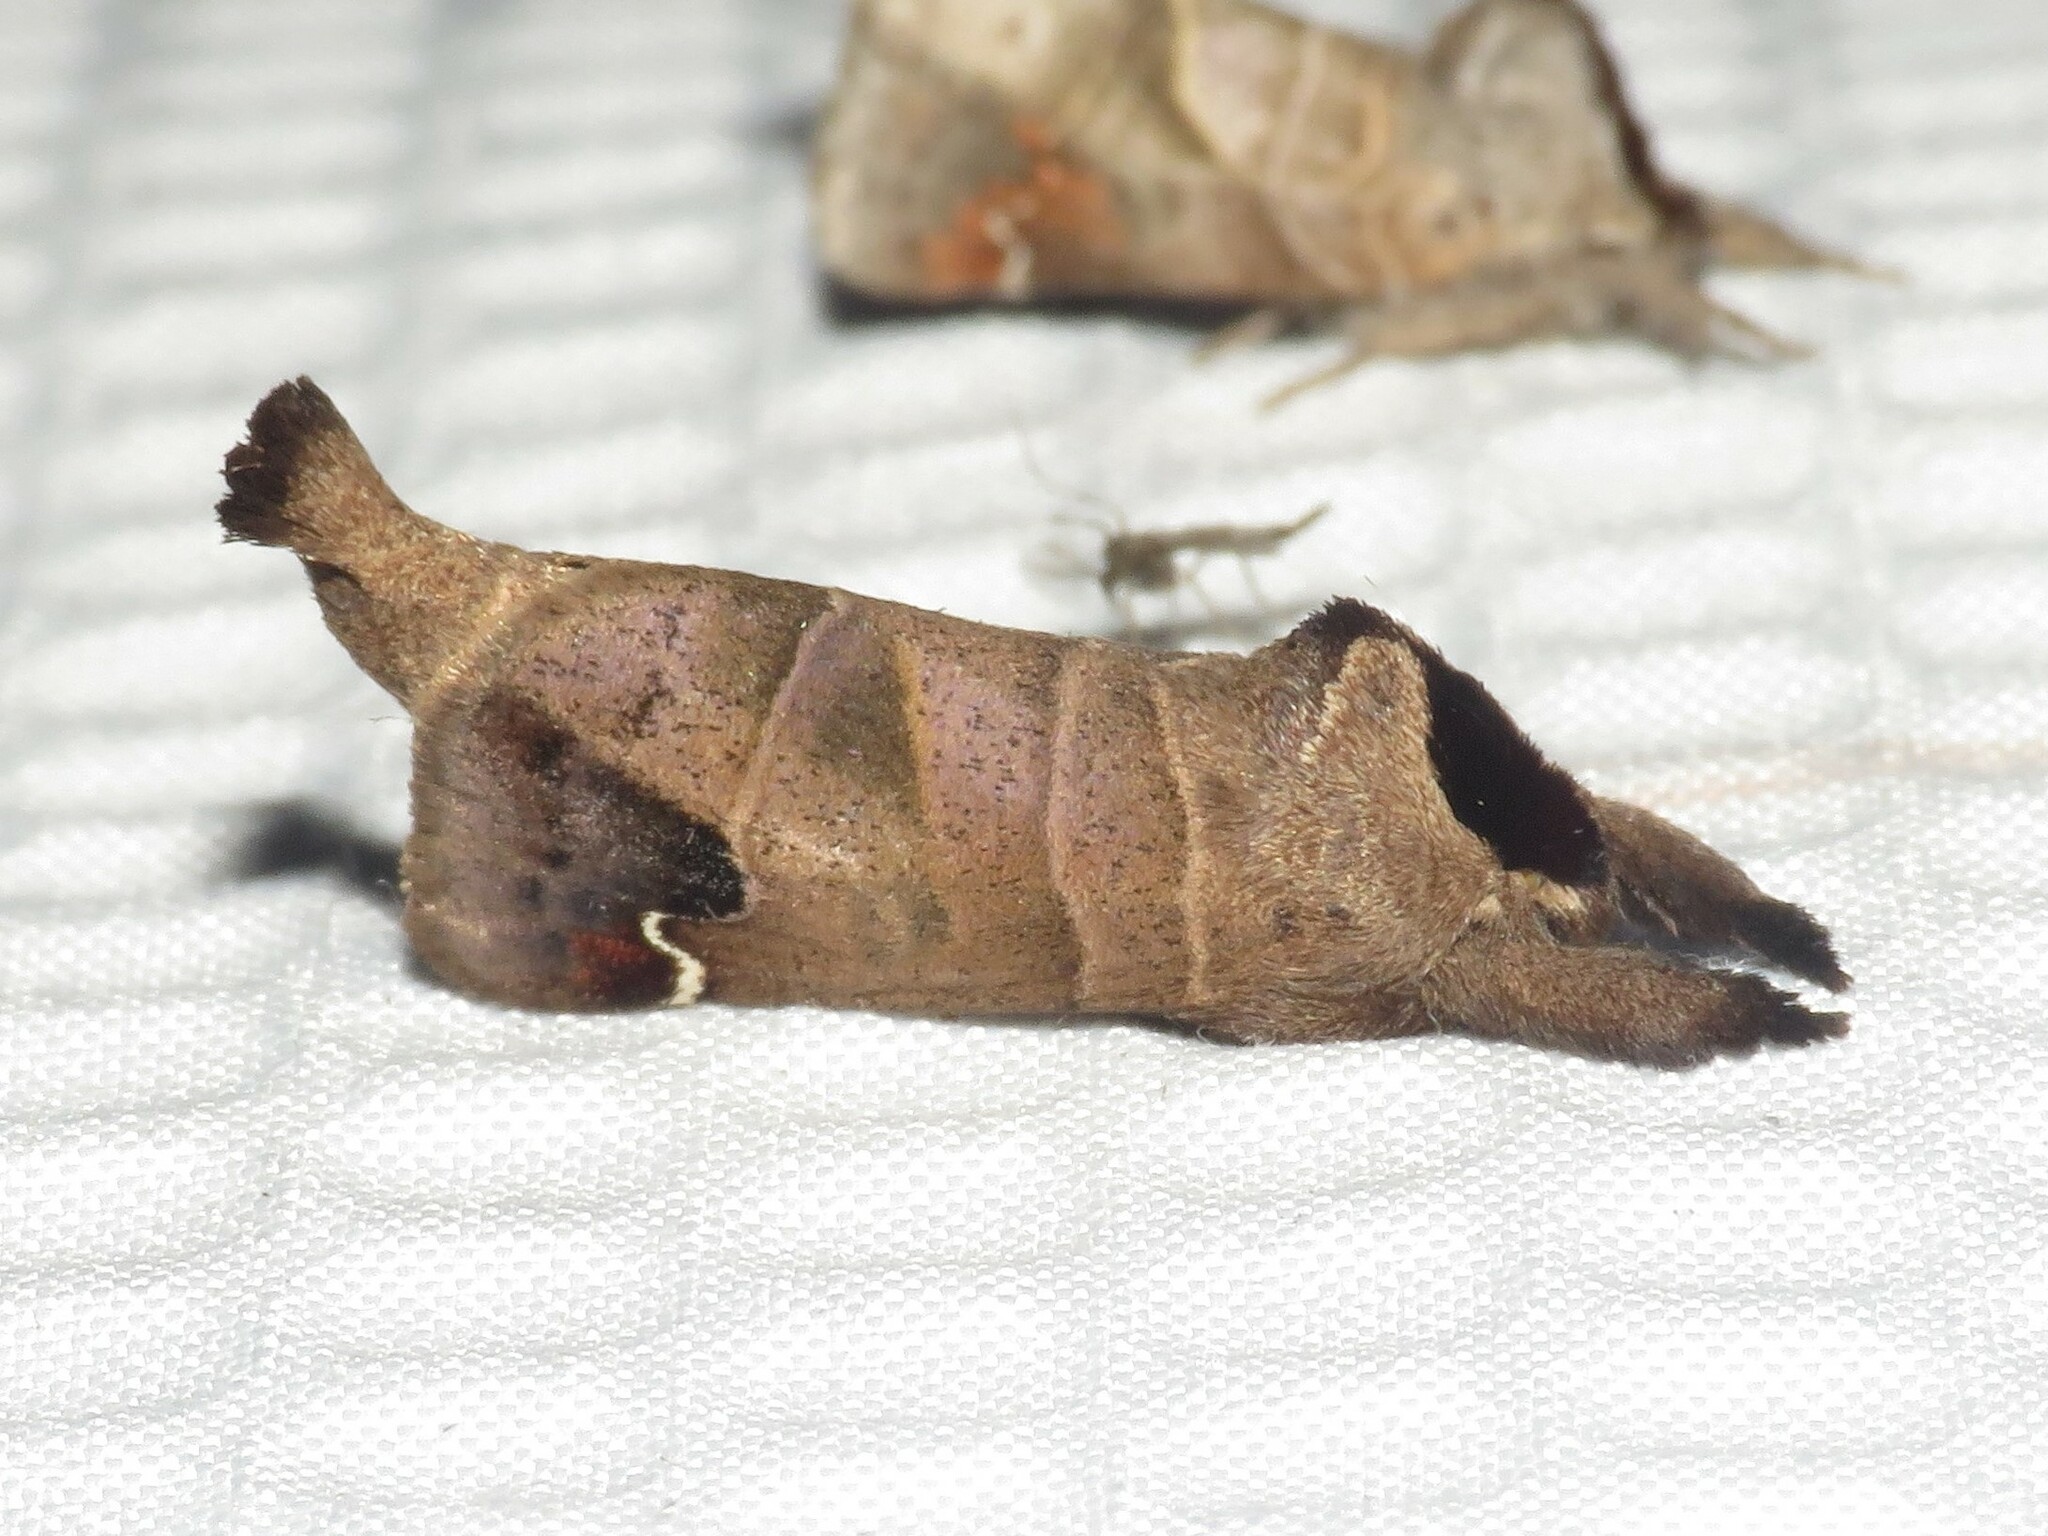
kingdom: Animalia
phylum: Arthropoda
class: Insecta
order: Lepidoptera
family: Notodontidae
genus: Clostera
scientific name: Clostera albosigma
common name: Sigmoid prominent
